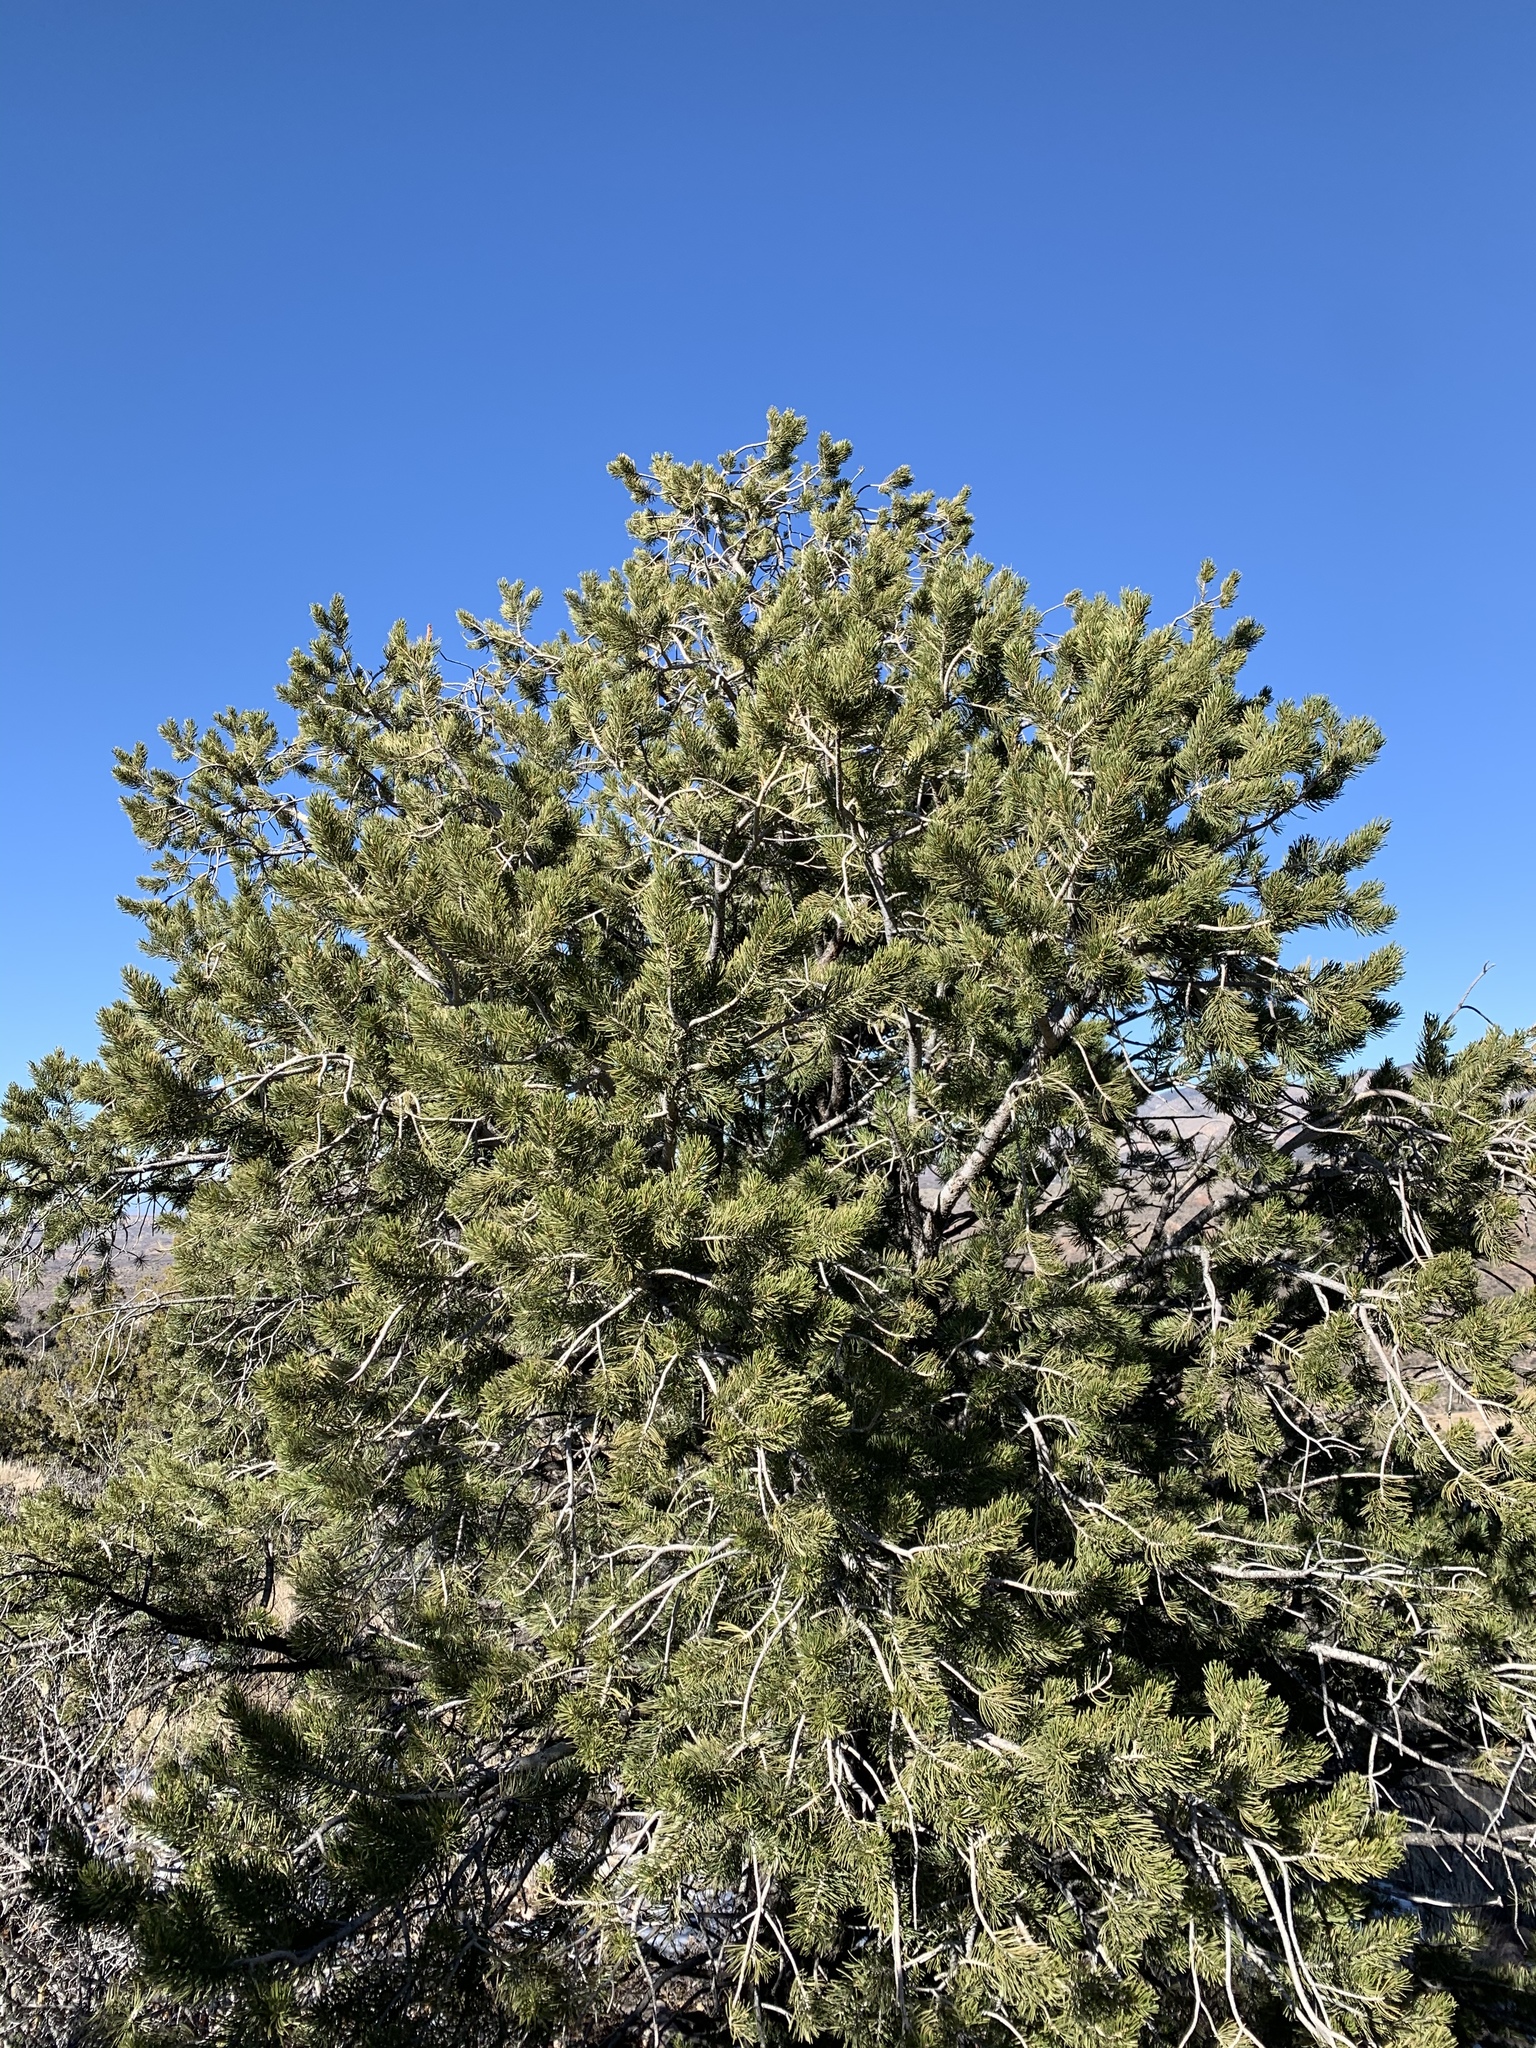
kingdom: Plantae
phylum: Tracheophyta
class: Pinopsida
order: Pinales
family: Pinaceae
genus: Pinus
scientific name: Pinus edulis
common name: Colorado pinyon
